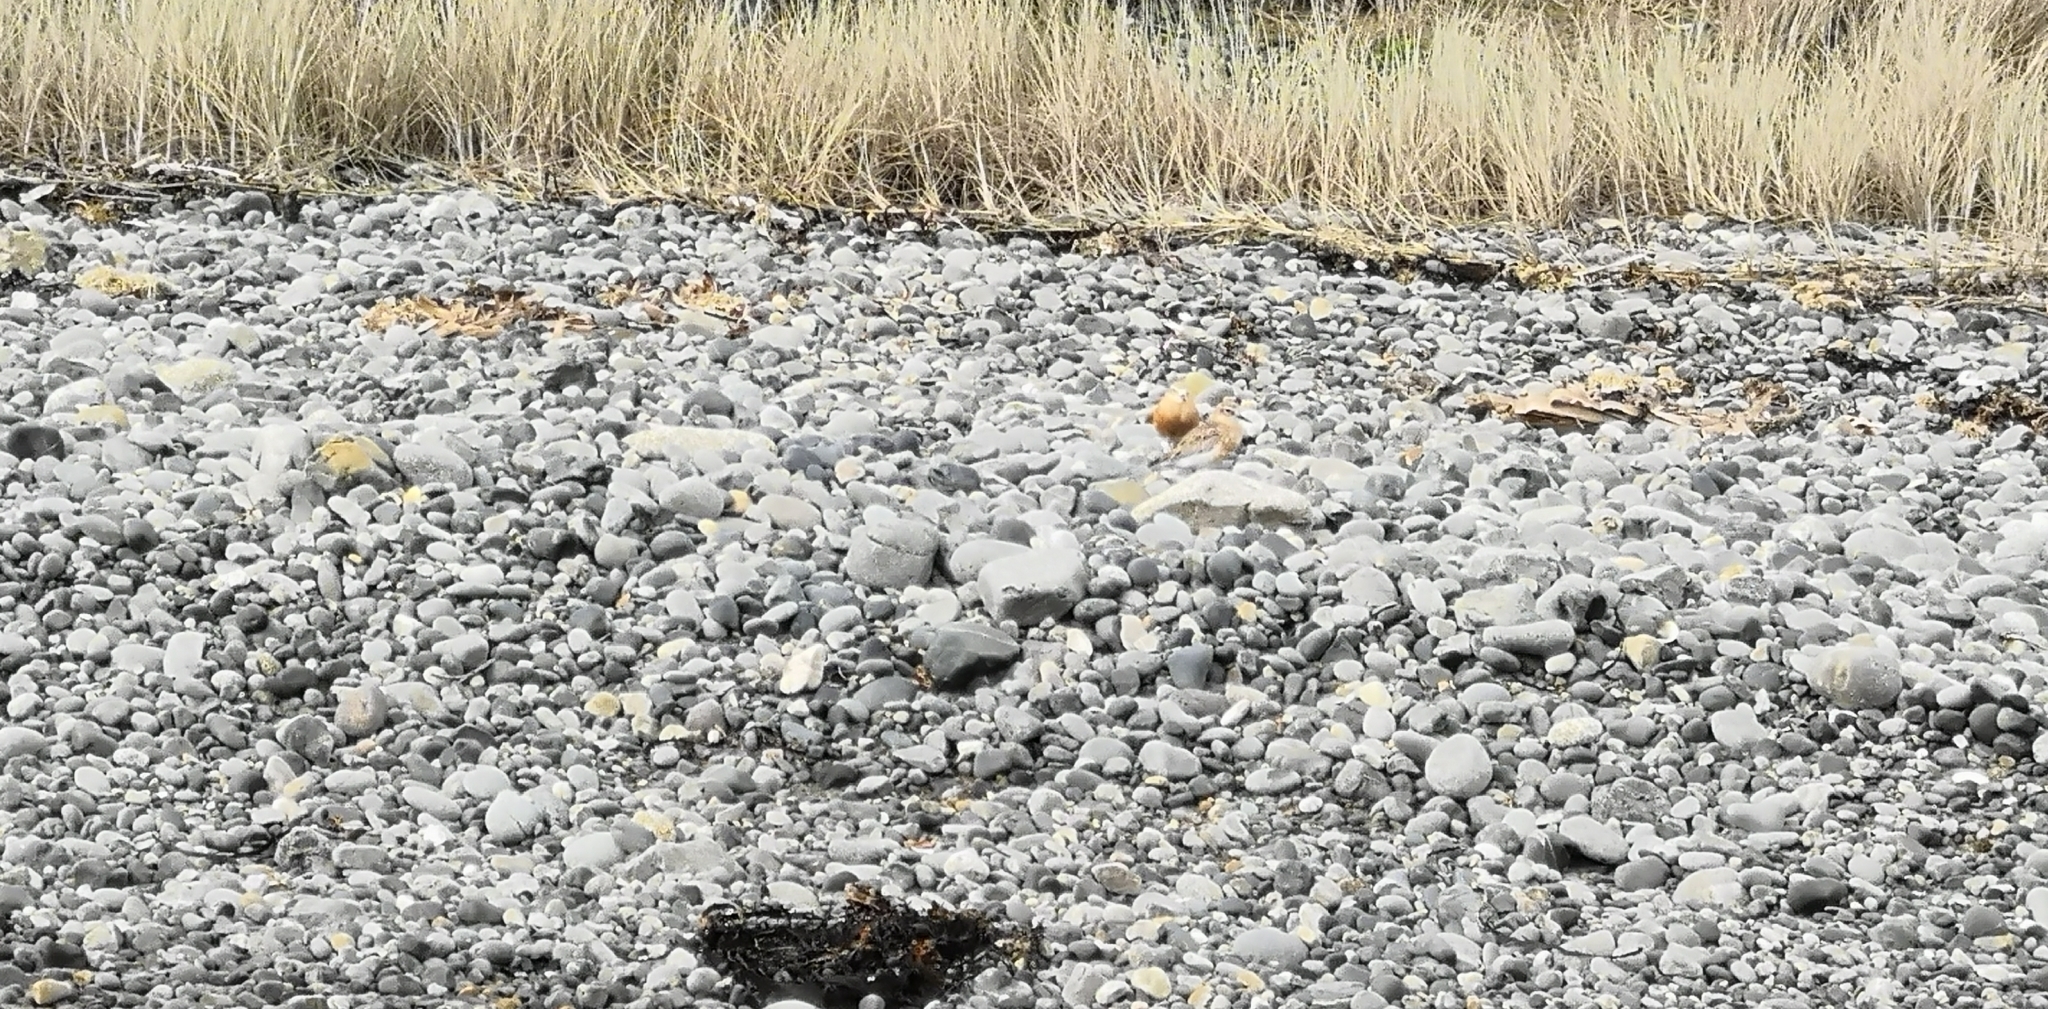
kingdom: Animalia
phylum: Chordata
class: Aves
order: Charadriiformes
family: Charadriidae
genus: Anarhynchus
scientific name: Anarhynchus
